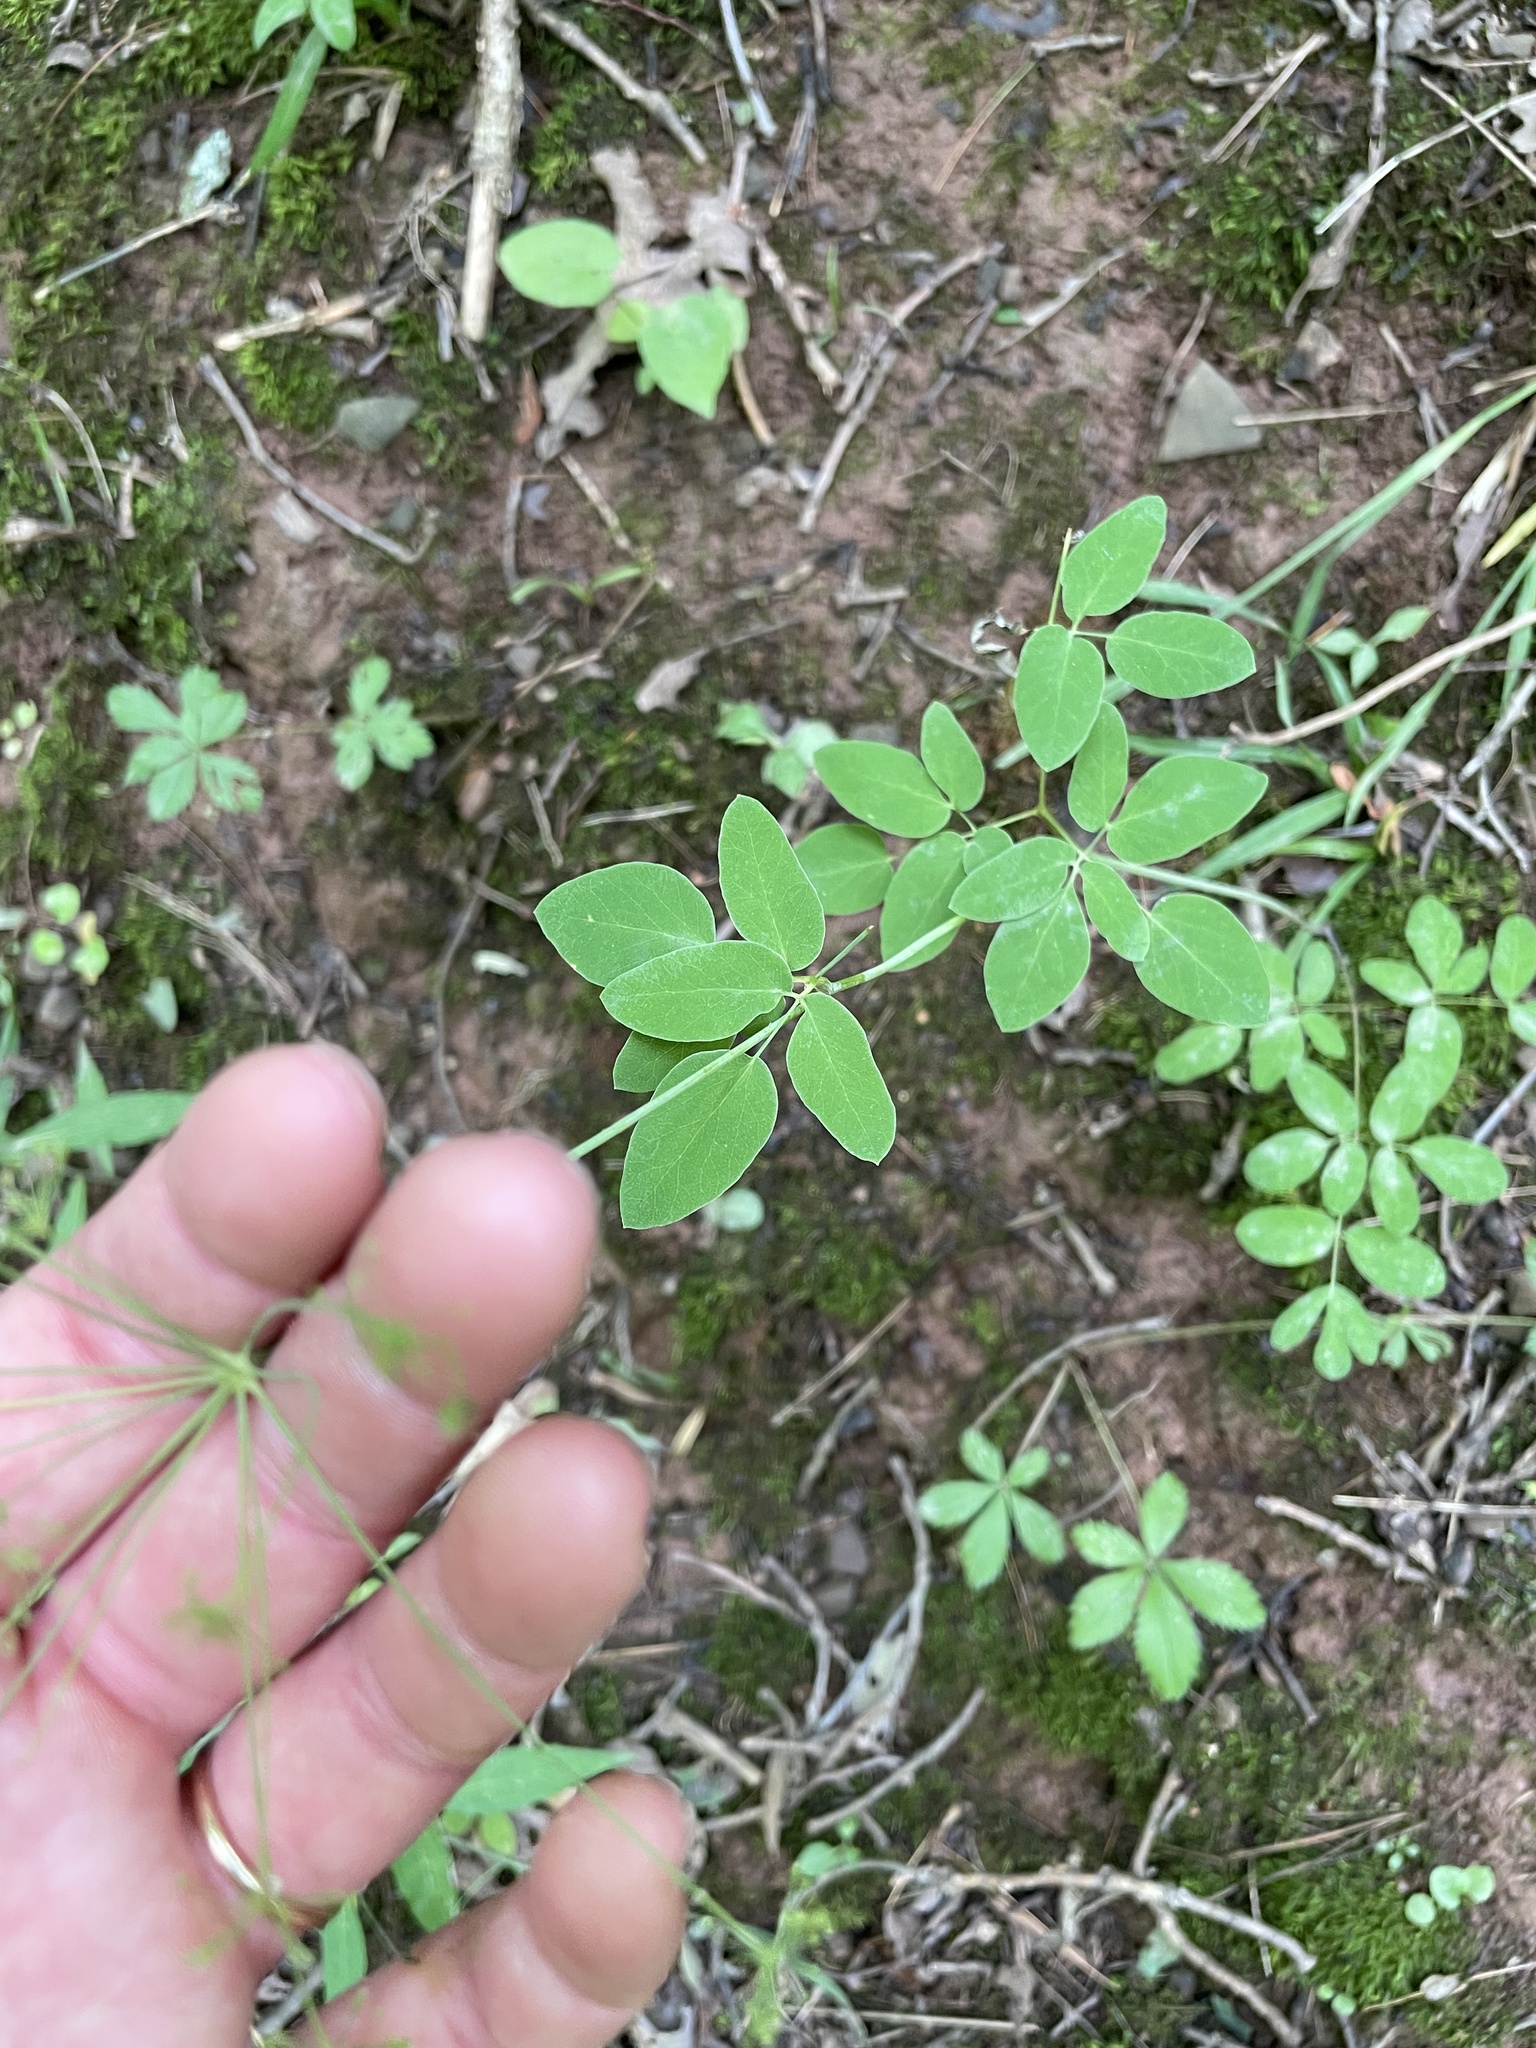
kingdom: Plantae
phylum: Tracheophyta
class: Magnoliopsida
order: Apiales
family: Apiaceae
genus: Taenidia
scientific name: Taenidia integerrima
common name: Golden alexander
